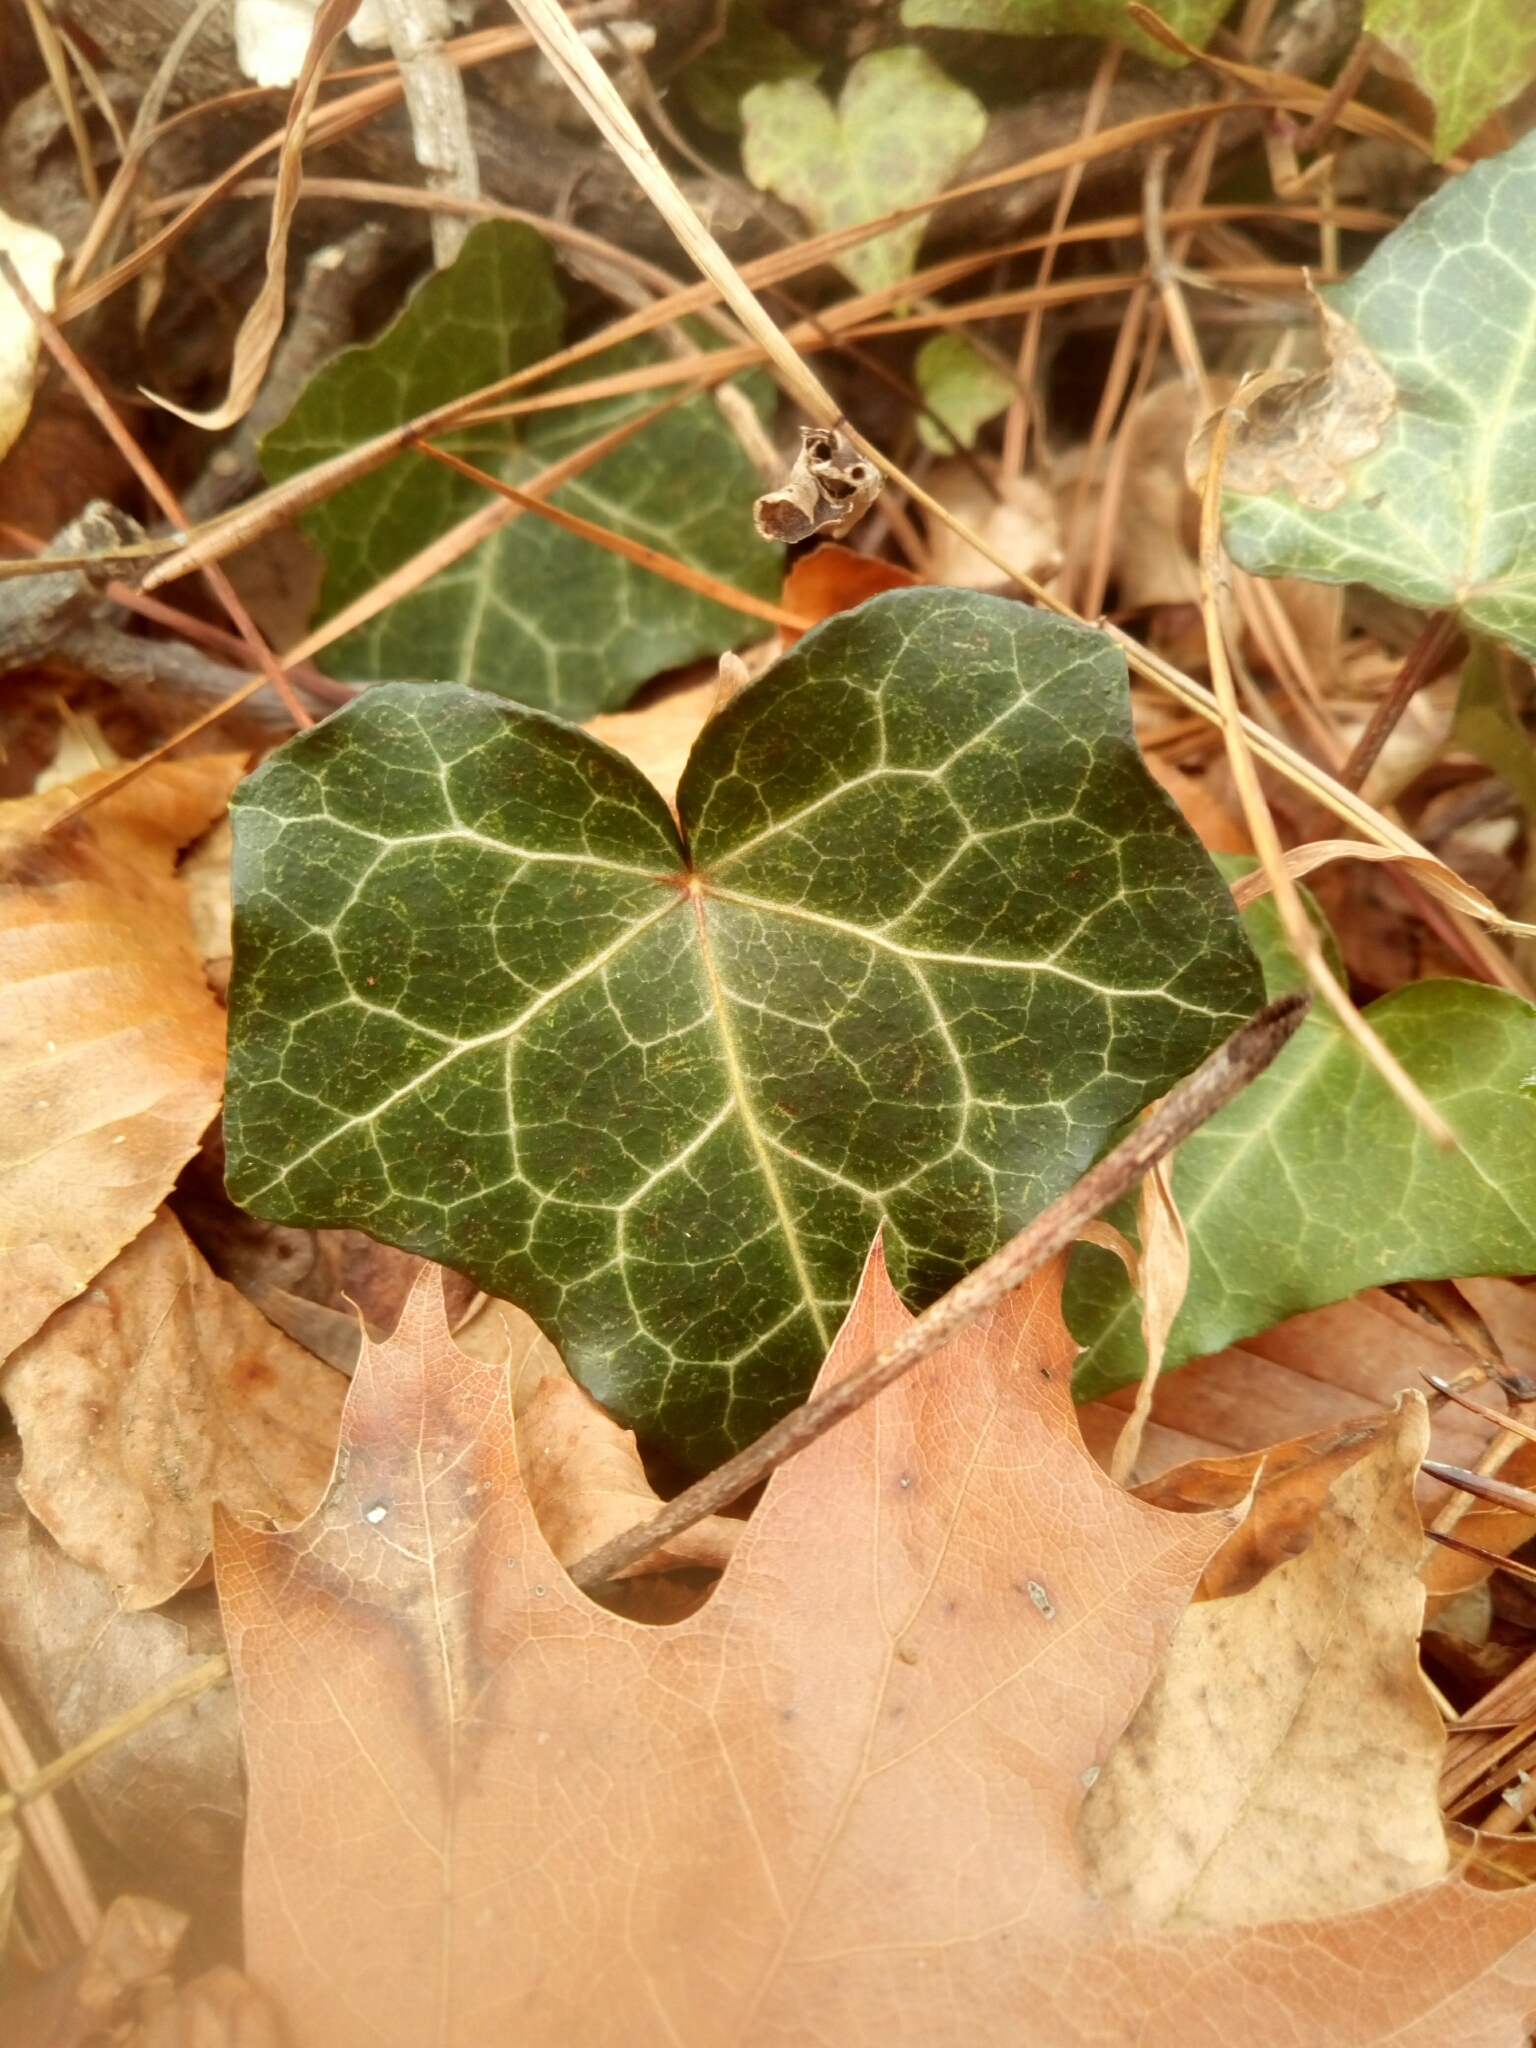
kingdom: Plantae
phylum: Tracheophyta
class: Magnoliopsida
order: Apiales
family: Araliaceae
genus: Hedera
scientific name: Hedera helix
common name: Ivy
